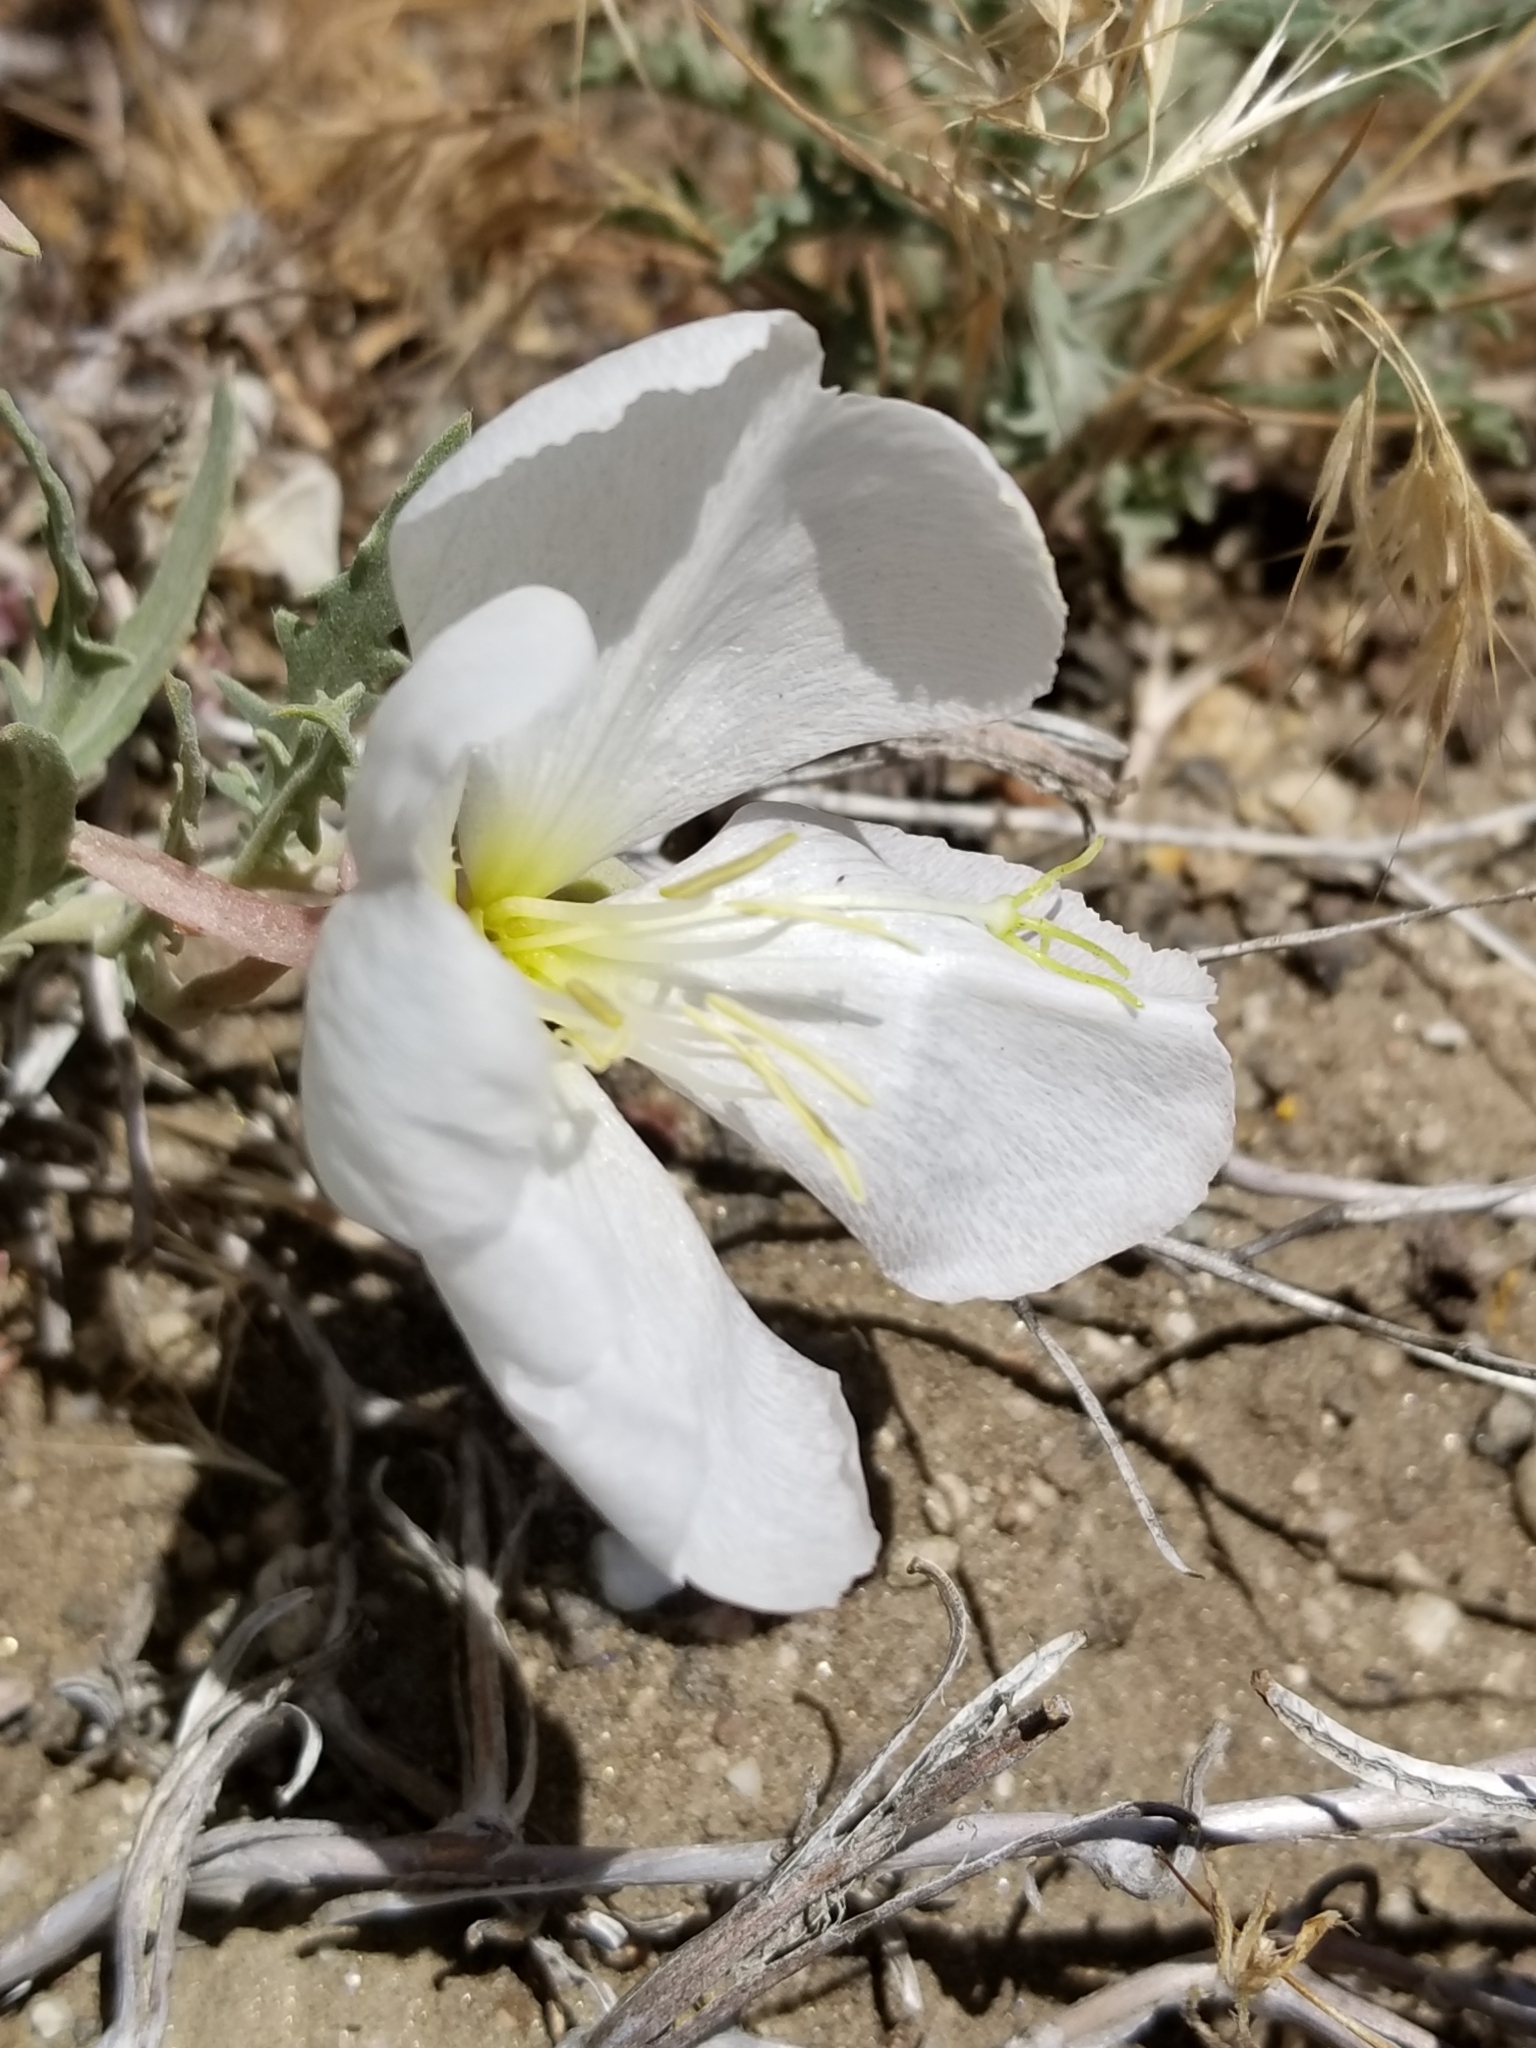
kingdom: Plantae
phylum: Tracheophyta
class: Magnoliopsida
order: Myrtales
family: Onagraceae
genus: Oenothera
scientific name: Oenothera californica
